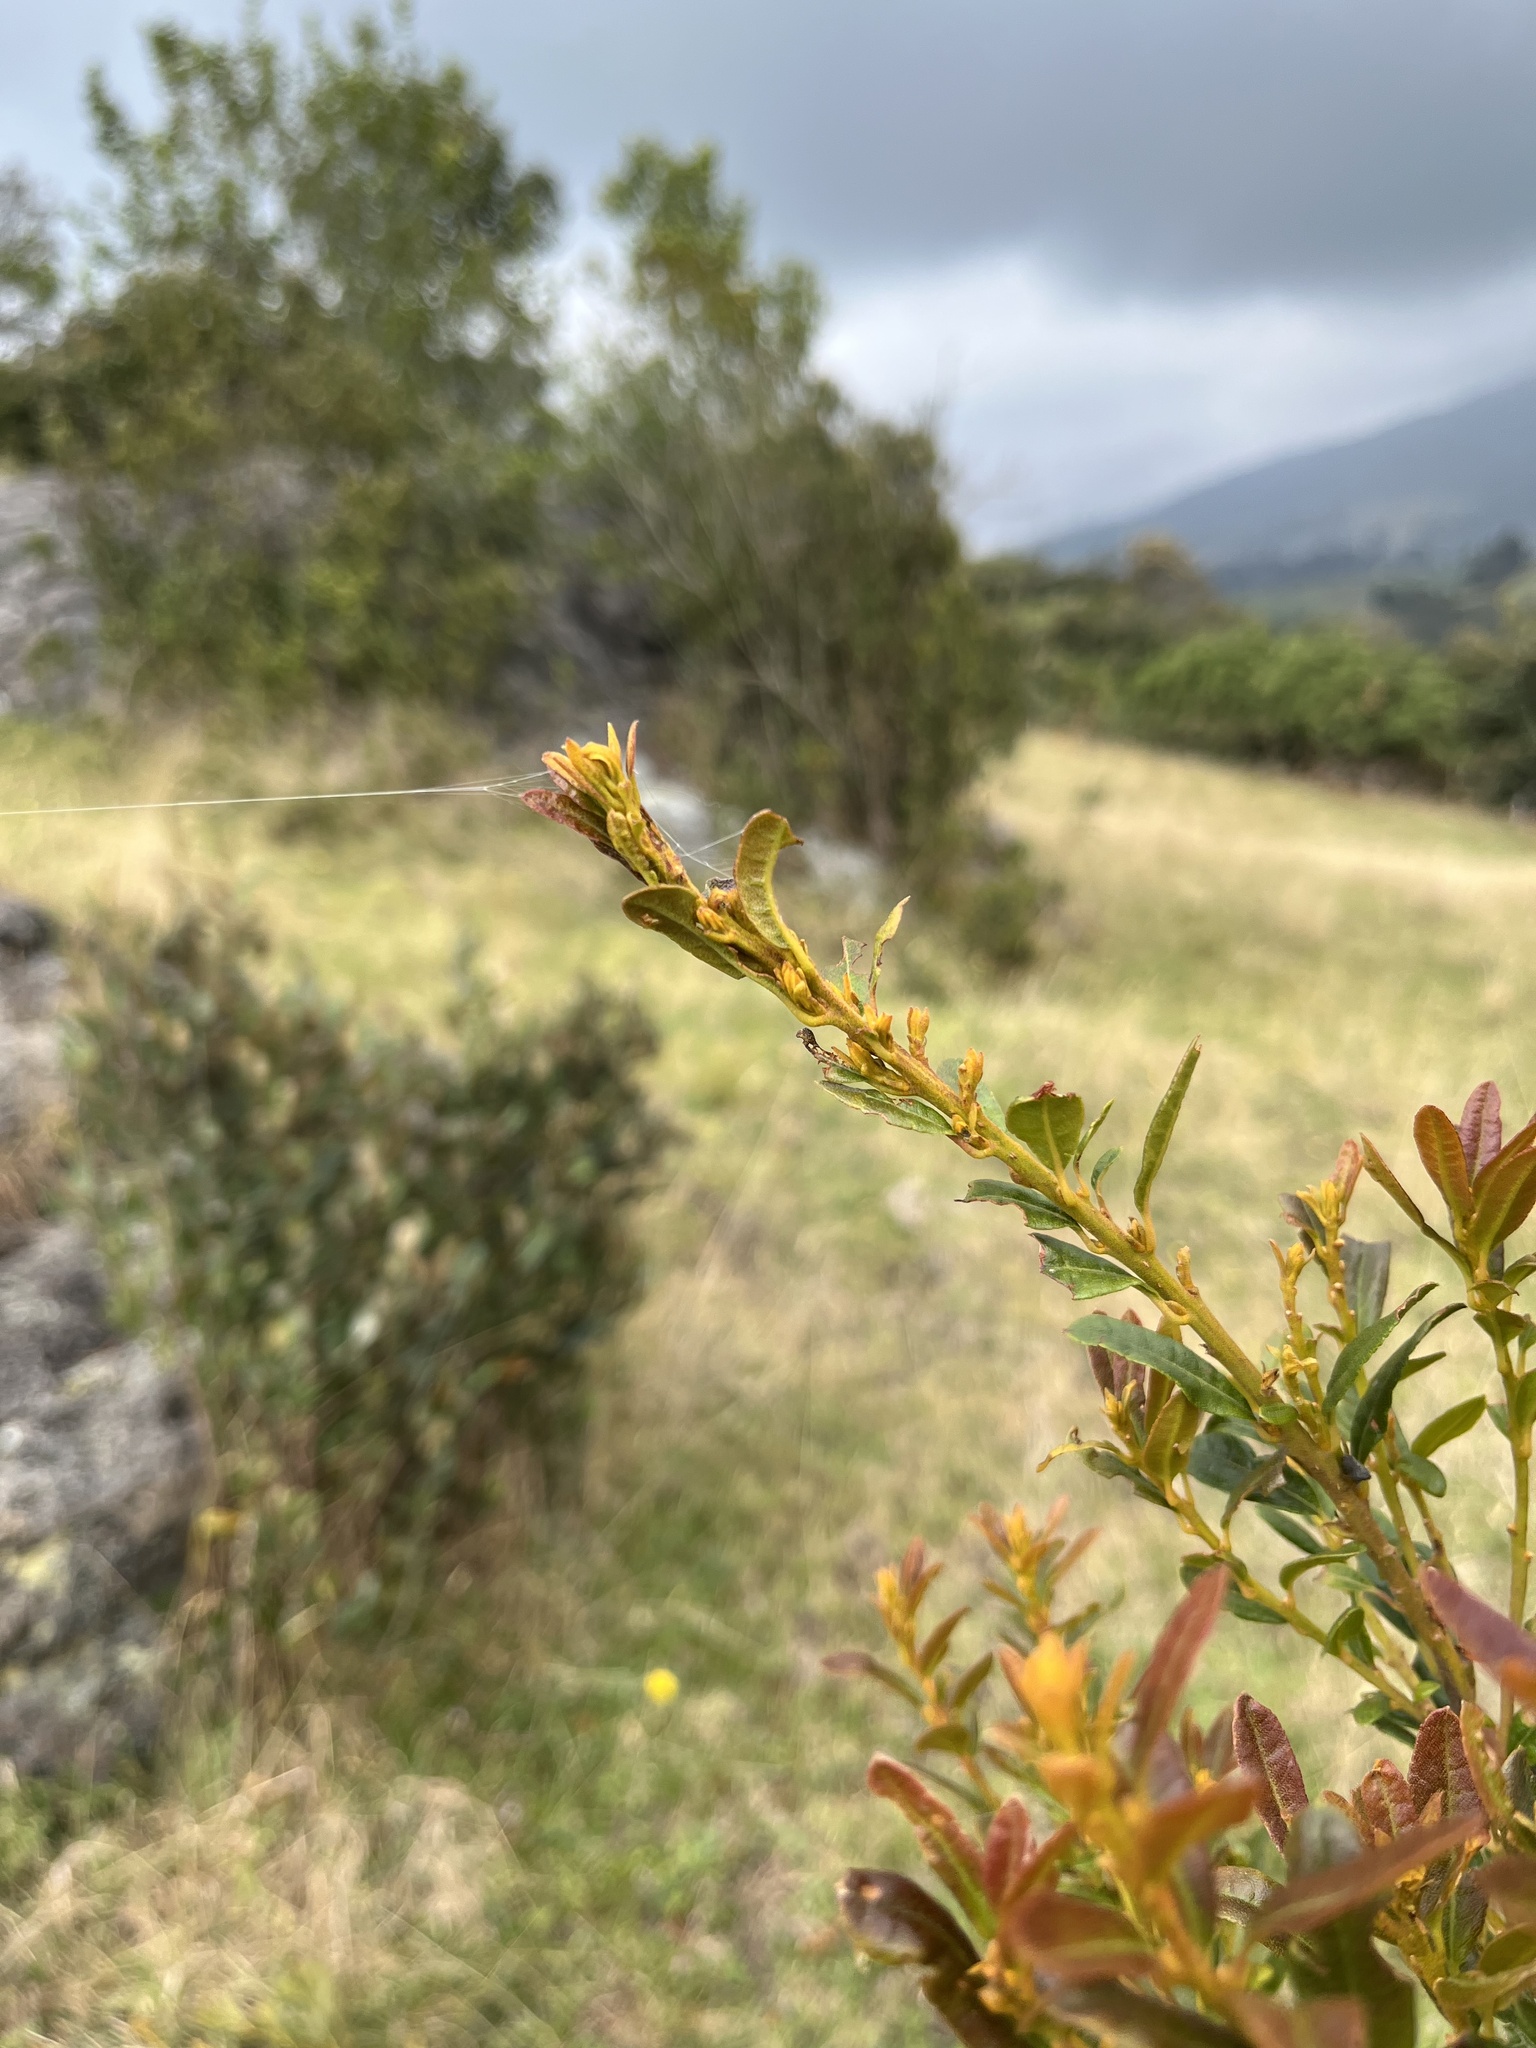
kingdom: Plantae
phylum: Tracheophyta
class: Magnoliopsida
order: Fagales
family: Myricaceae
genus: Morella
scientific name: Morella parvifolia
